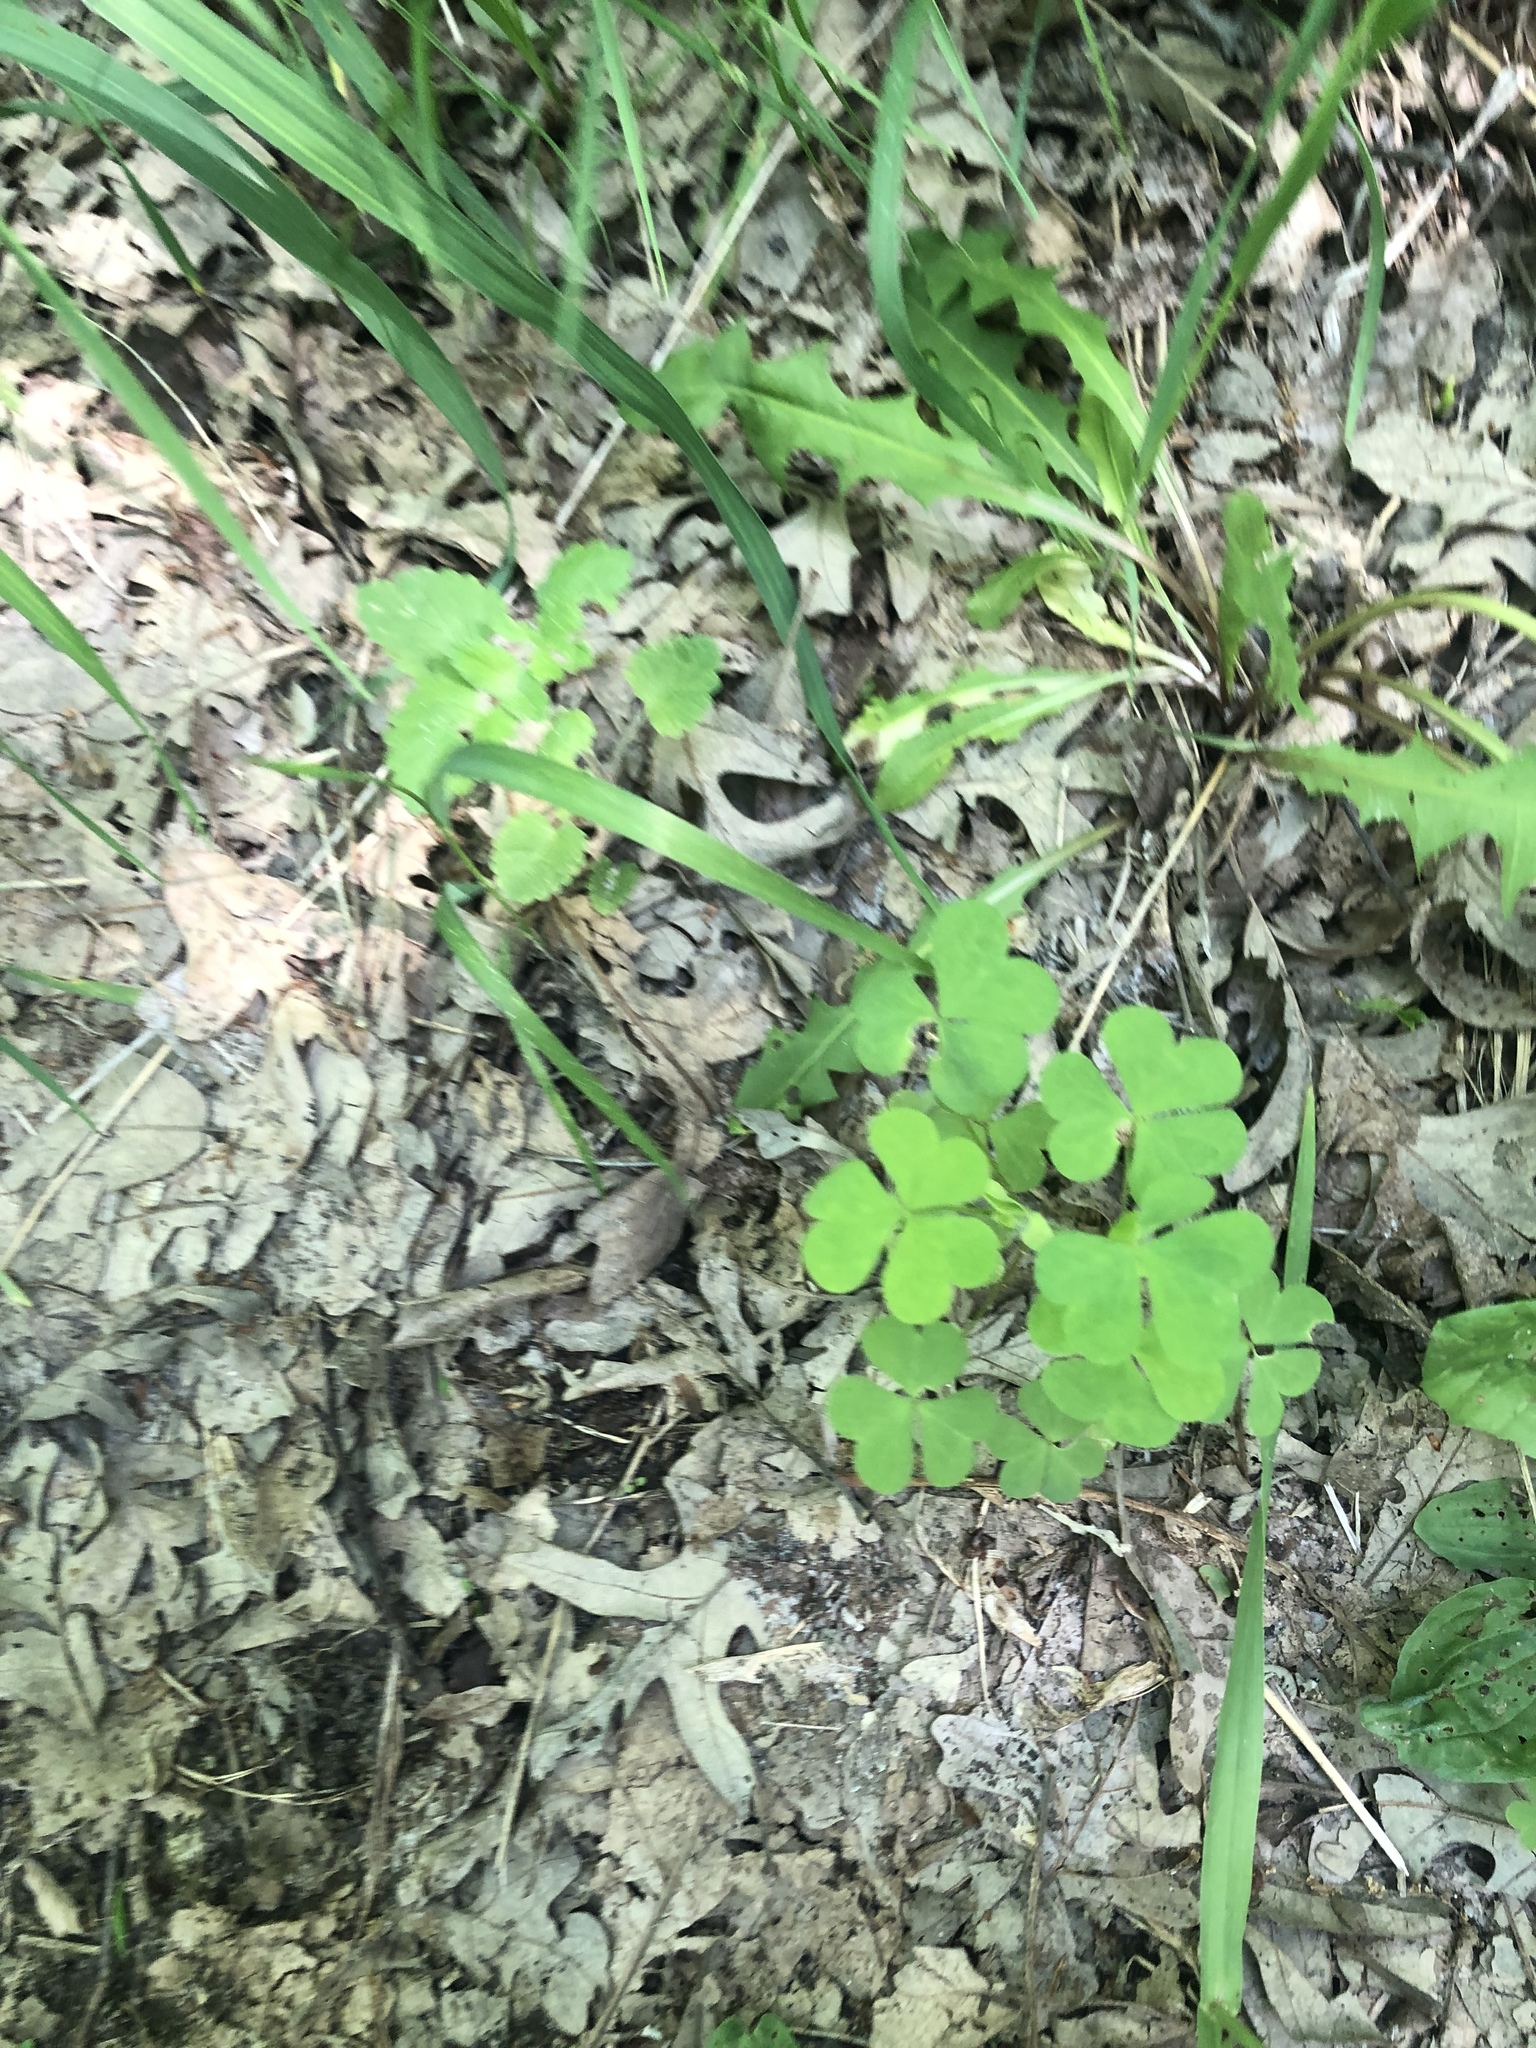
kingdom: Plantae
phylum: Tracheophyta
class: Magnoliopsida
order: Oxalidales
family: Oxalidaceae
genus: Oxalis
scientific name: Oxalis stricta
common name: Upright yellow-sorrel
